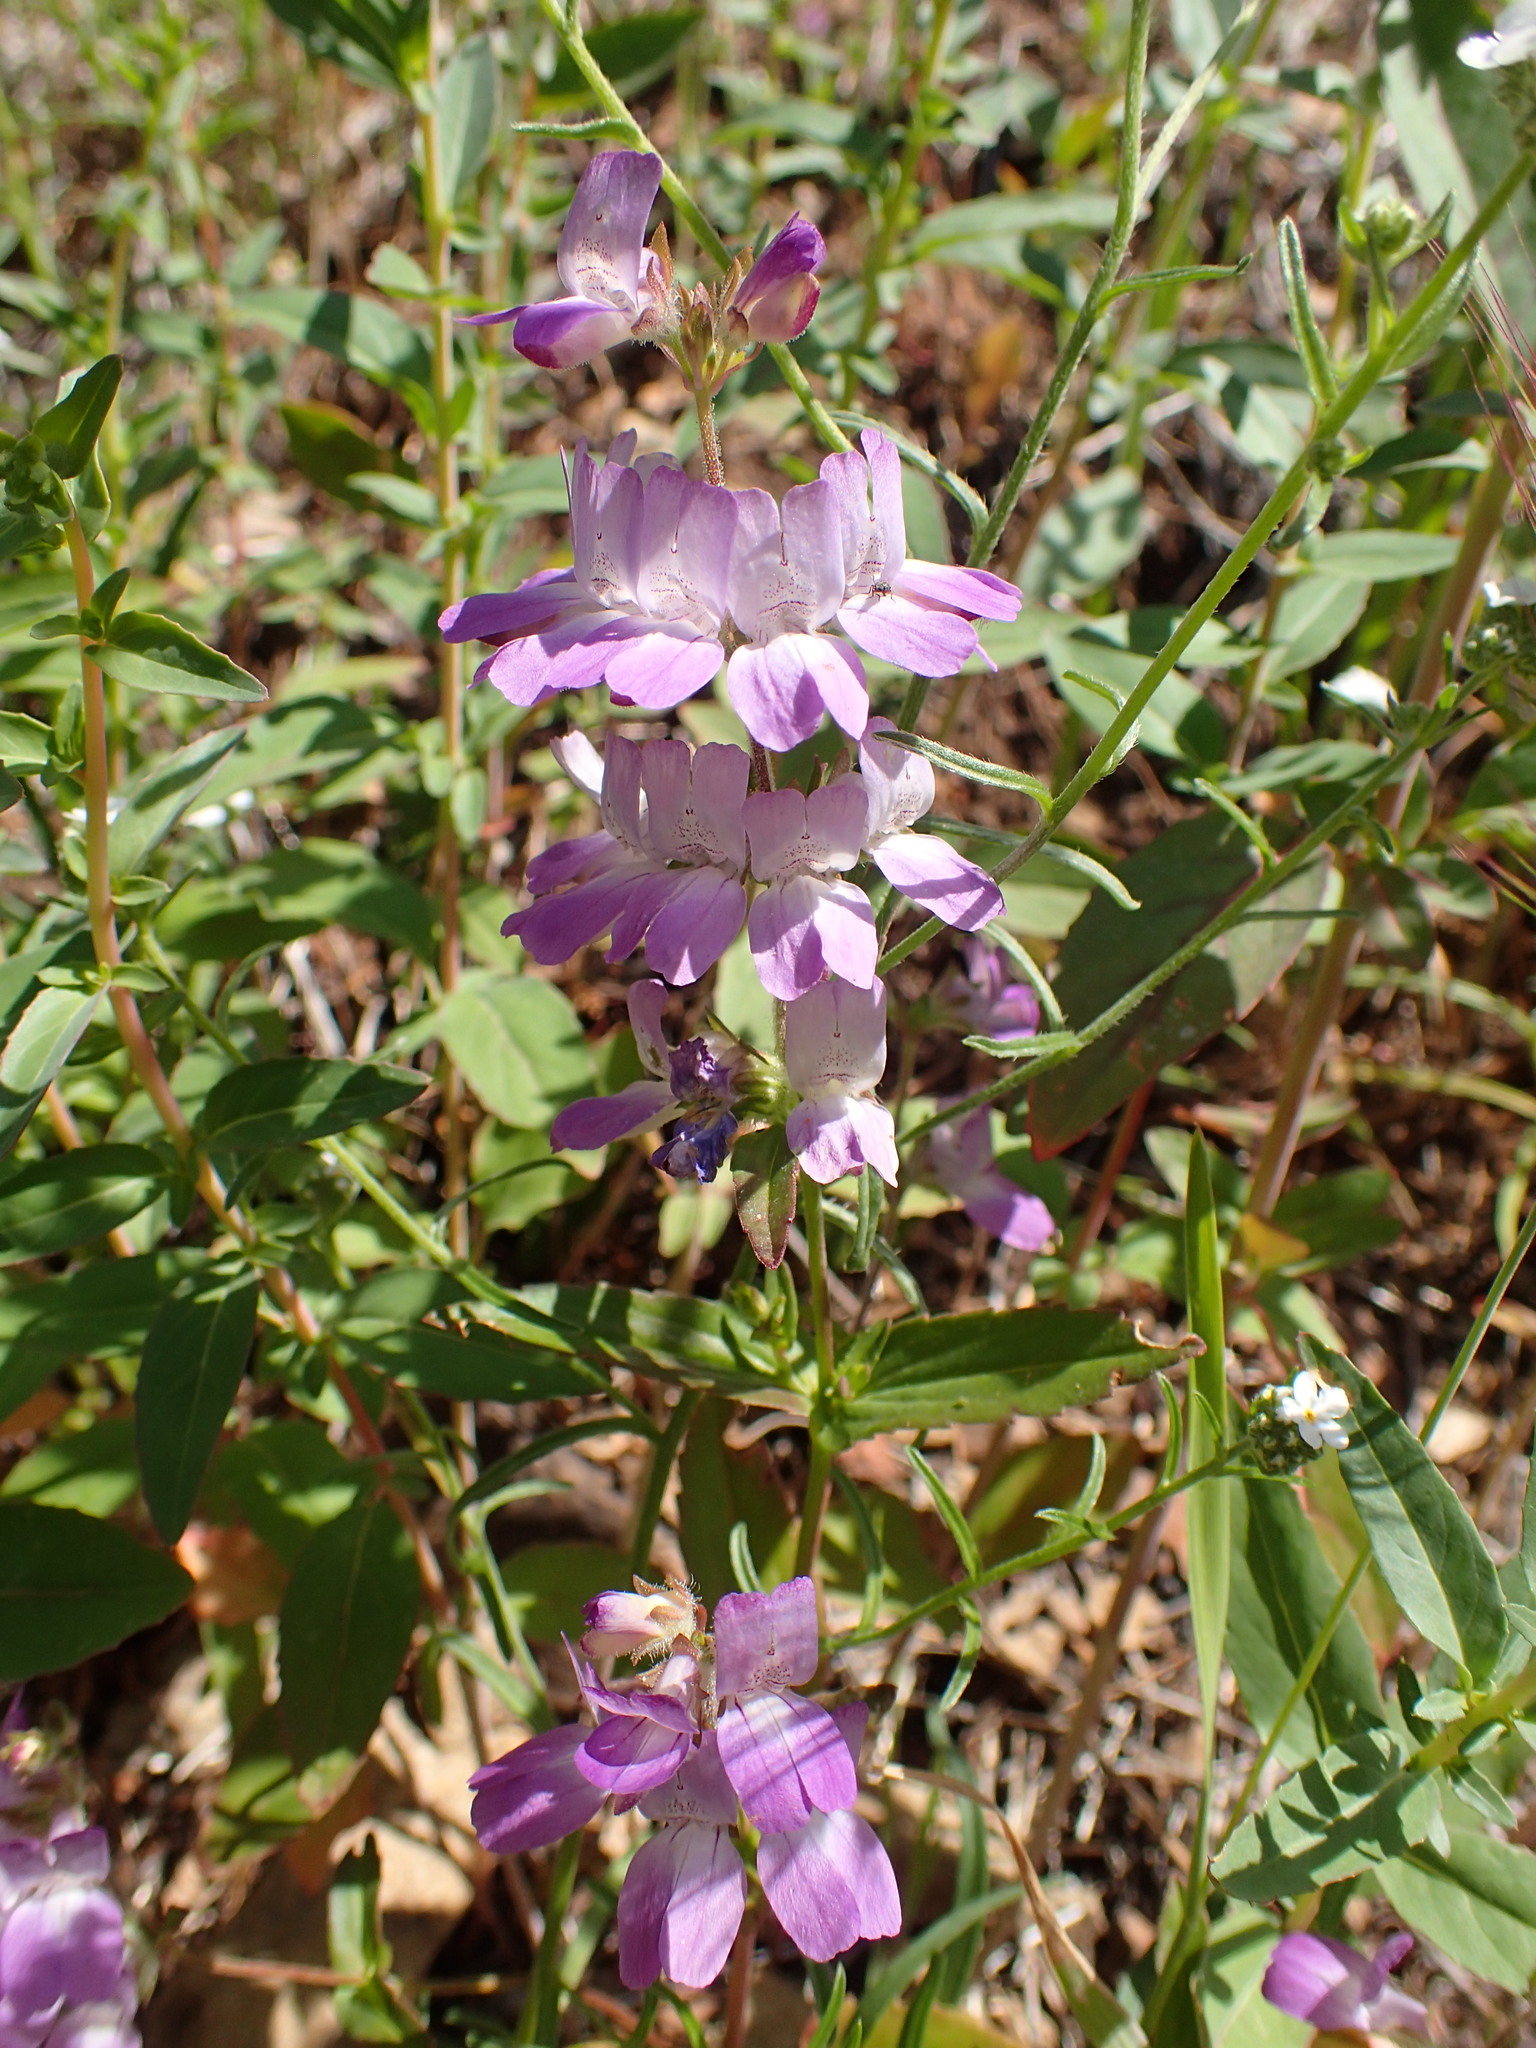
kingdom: Plantae
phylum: Tracheophyta
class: Magnoliopsida
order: Lamiales
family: Plantaginaceae
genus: Collinsia
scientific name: Collinsia heterophylla
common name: Chinese-houses
